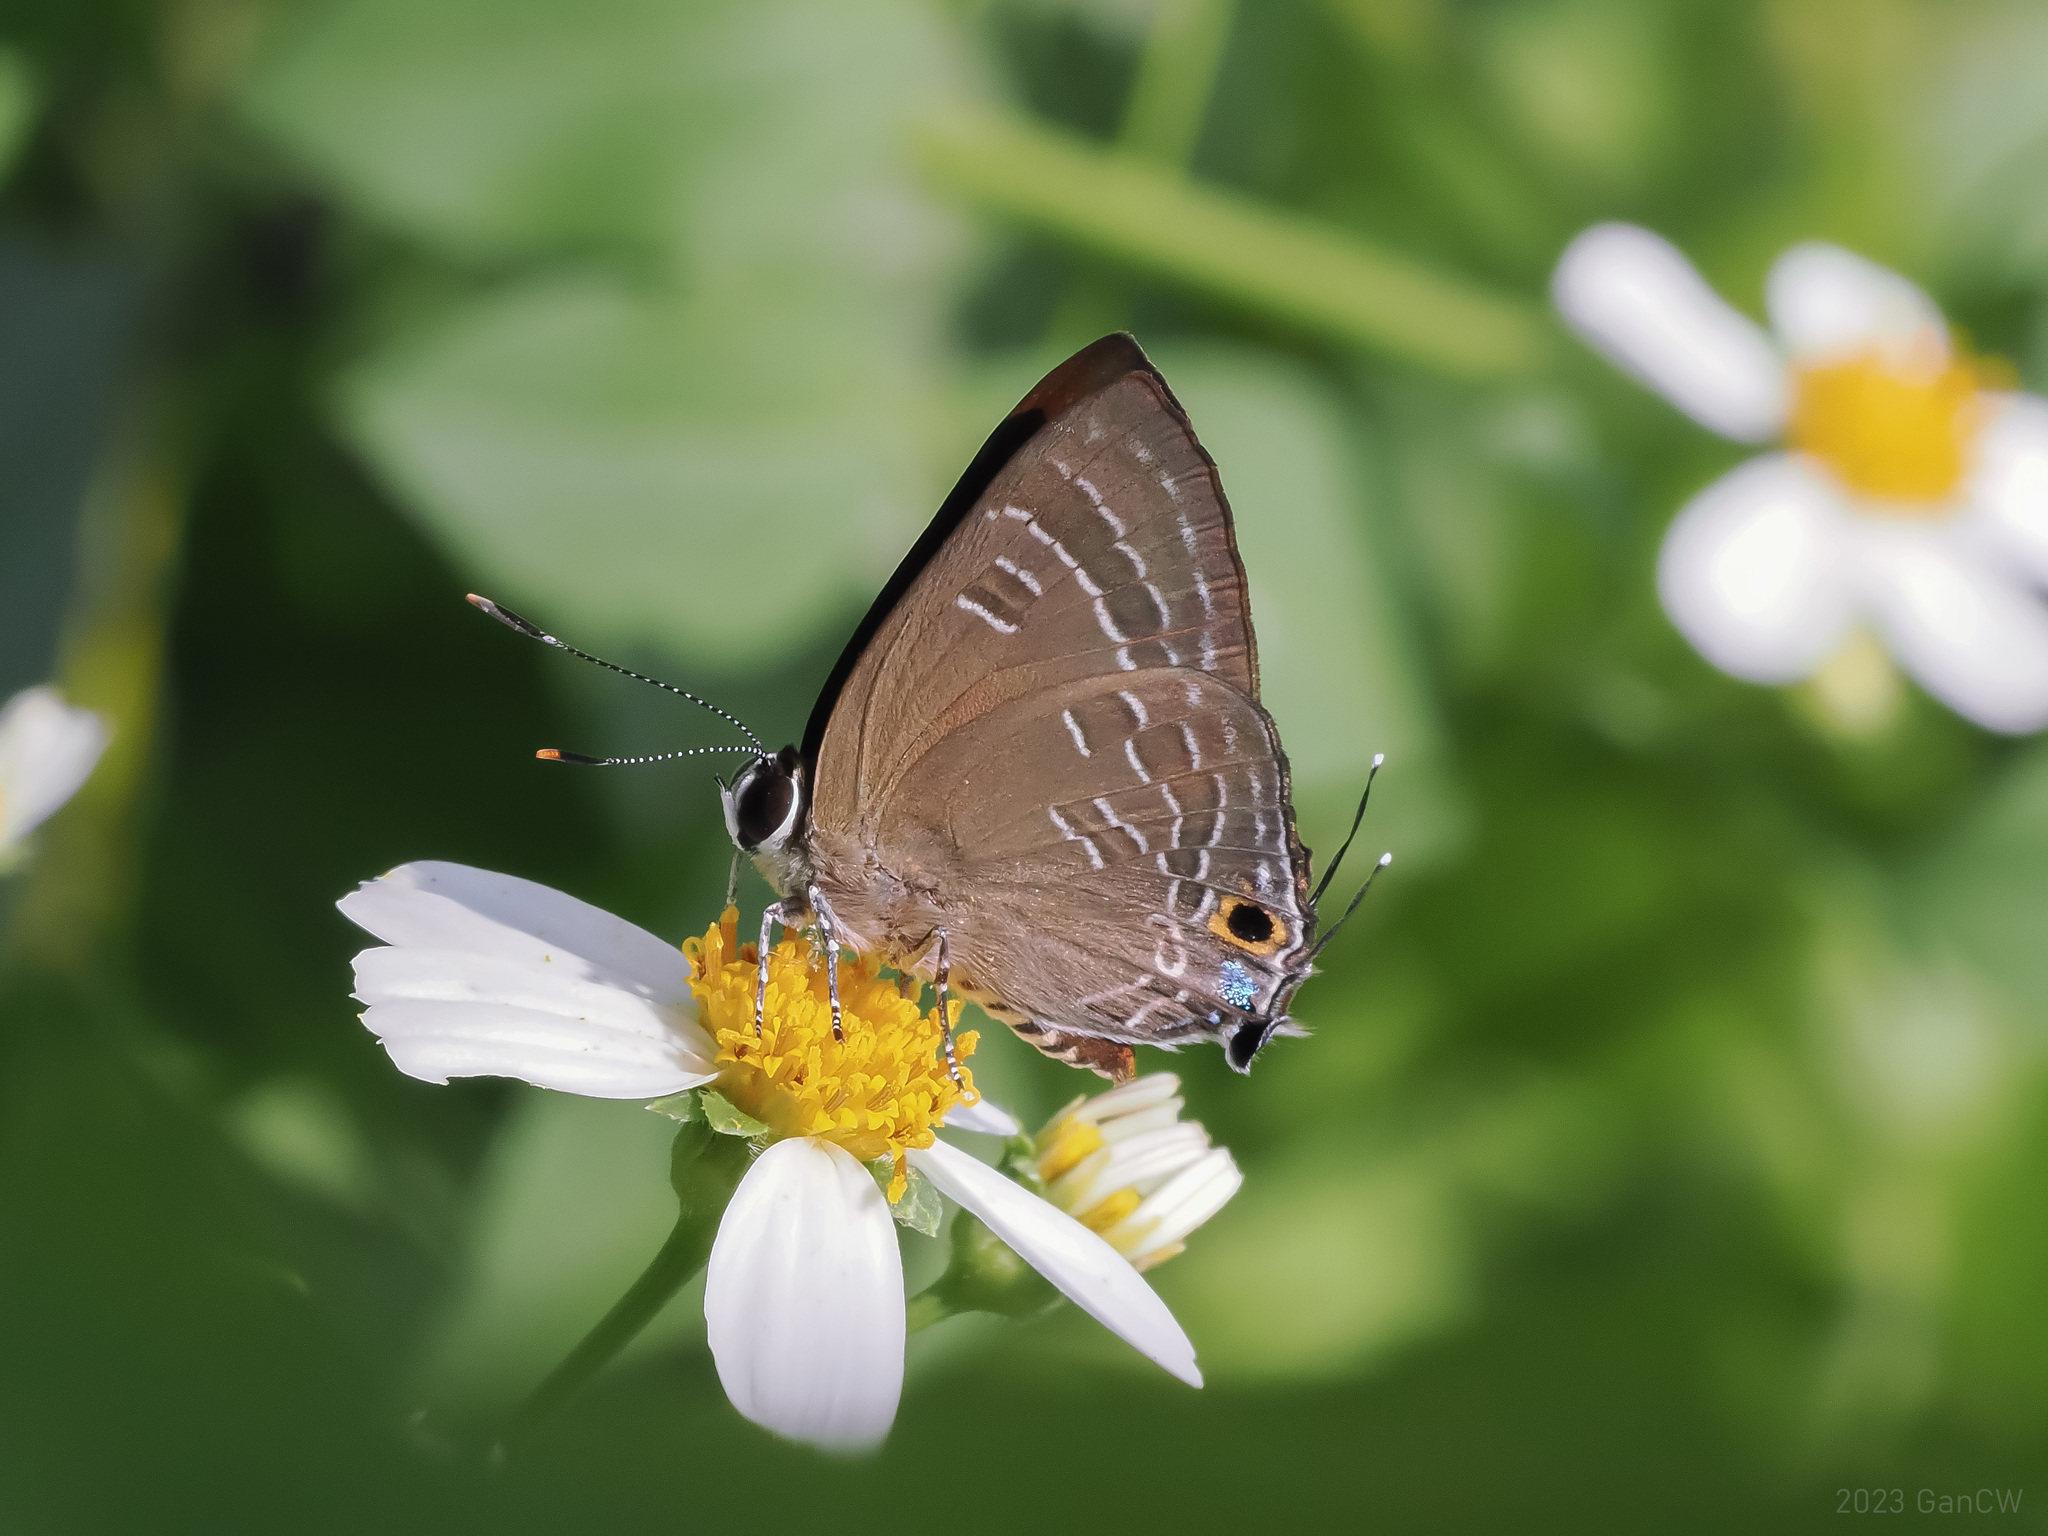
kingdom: Animalia
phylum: Arthropoda
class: Insecta
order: Lepidoptera
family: Lycaenidae
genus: Deudorix
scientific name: Deudorix epijarbas
